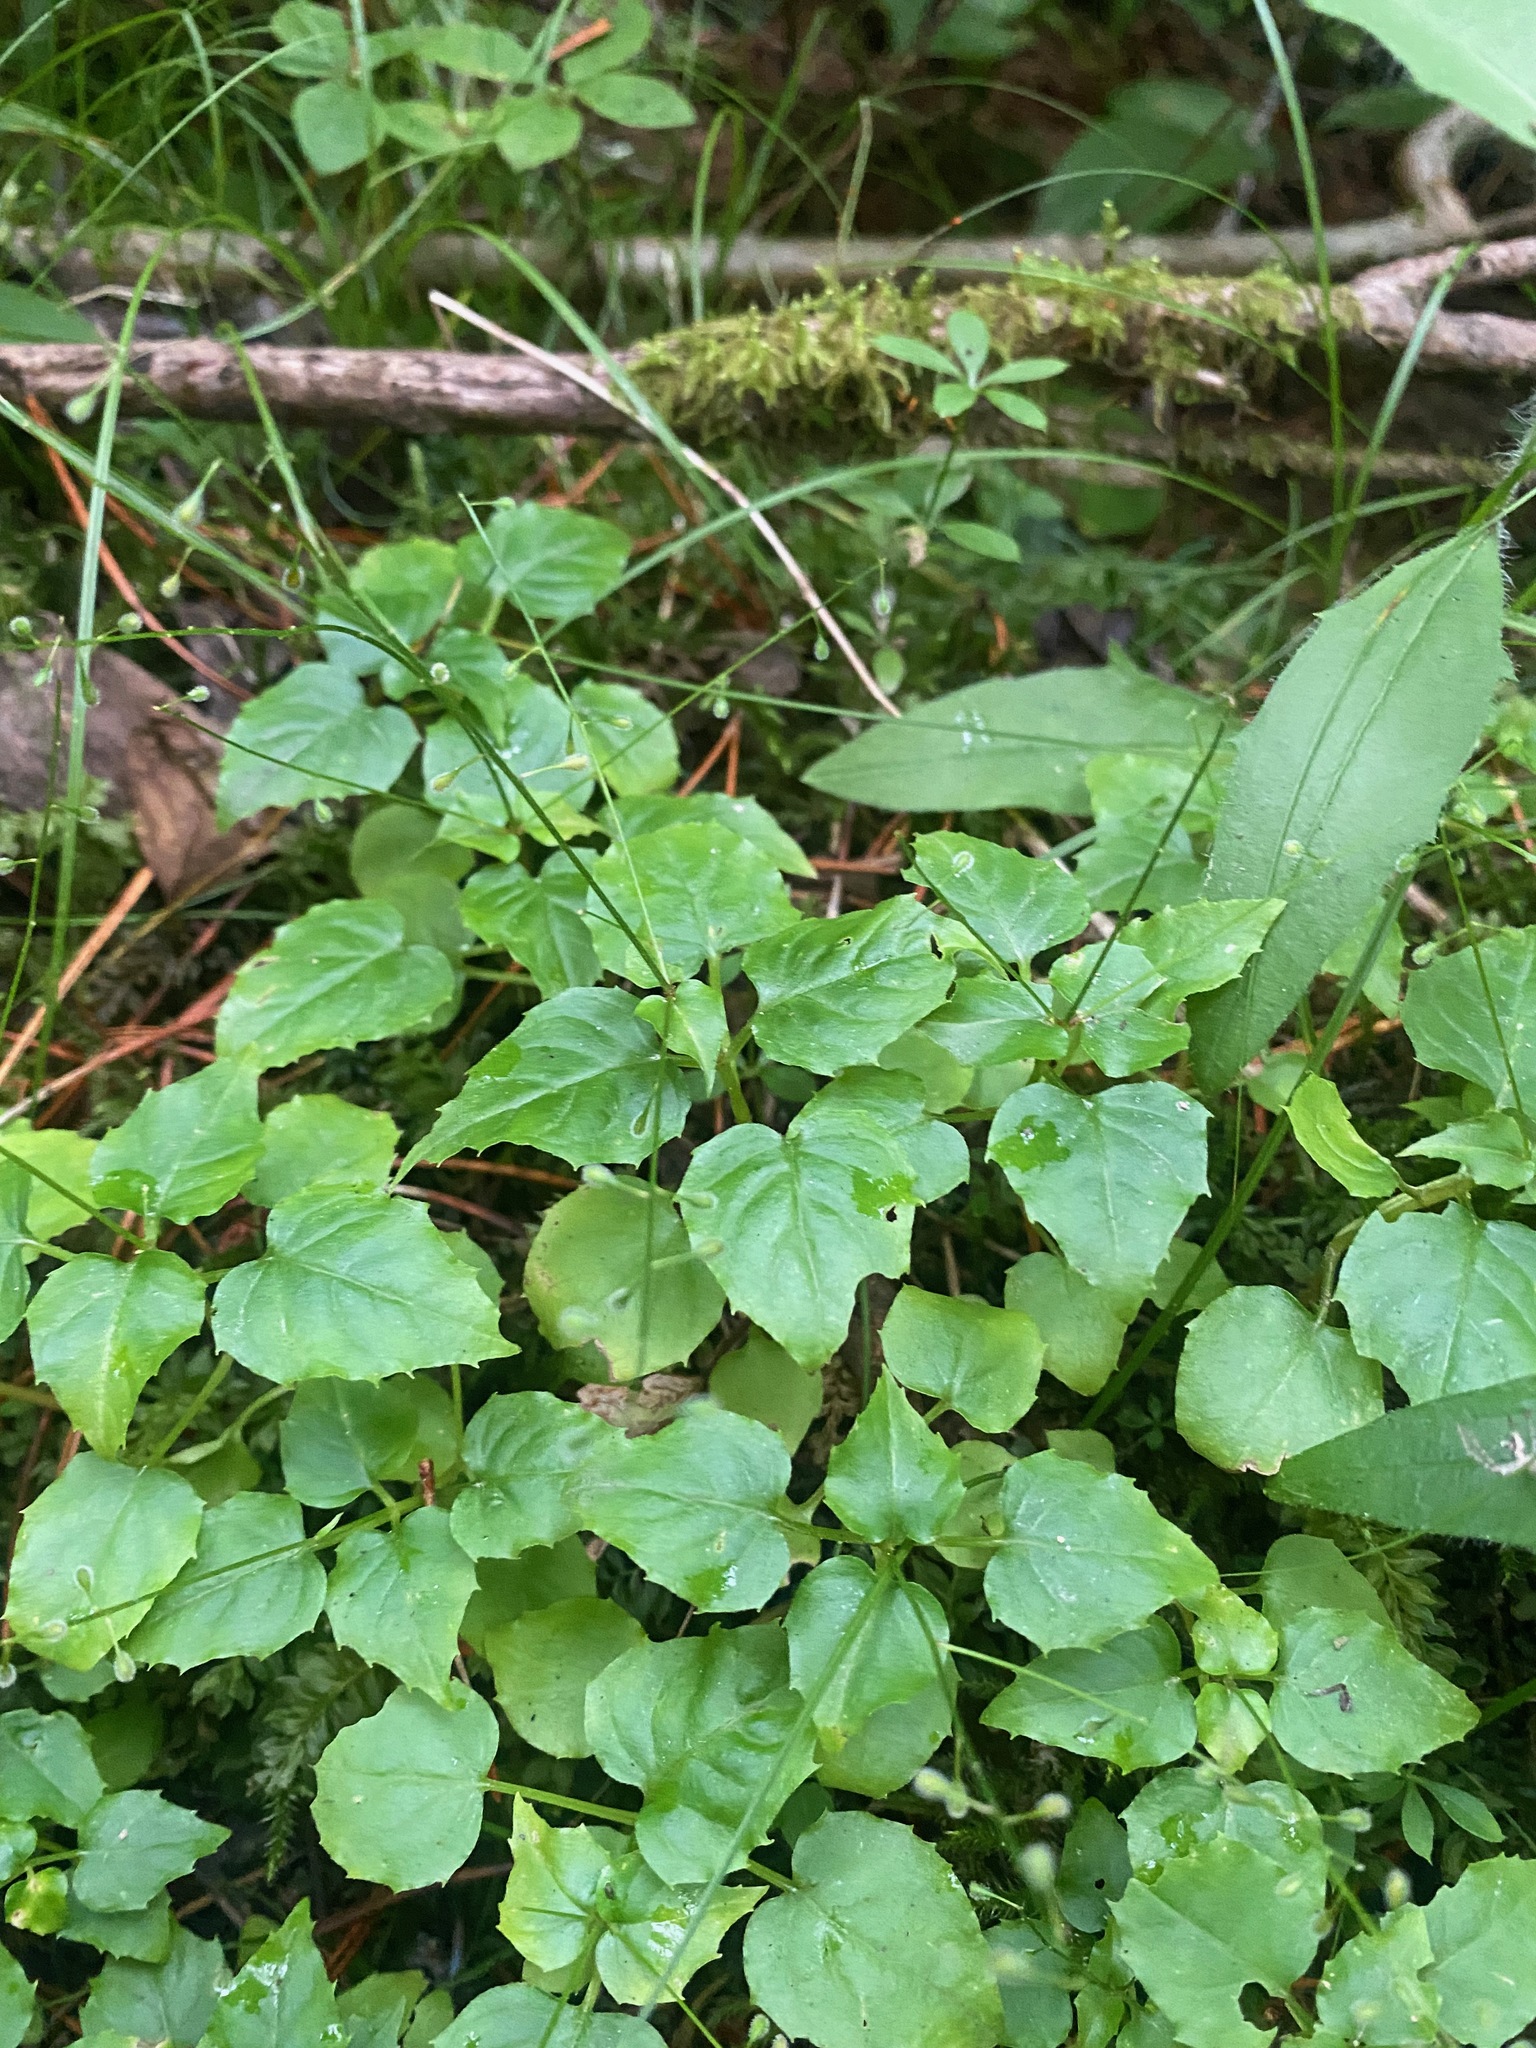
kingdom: Plantae
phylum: Tracheophyta
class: Magnoliopsida
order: Myrtales
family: Onagraceae
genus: Circaea
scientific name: Circaea alpina
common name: Alpine enchanter's-nightshade
